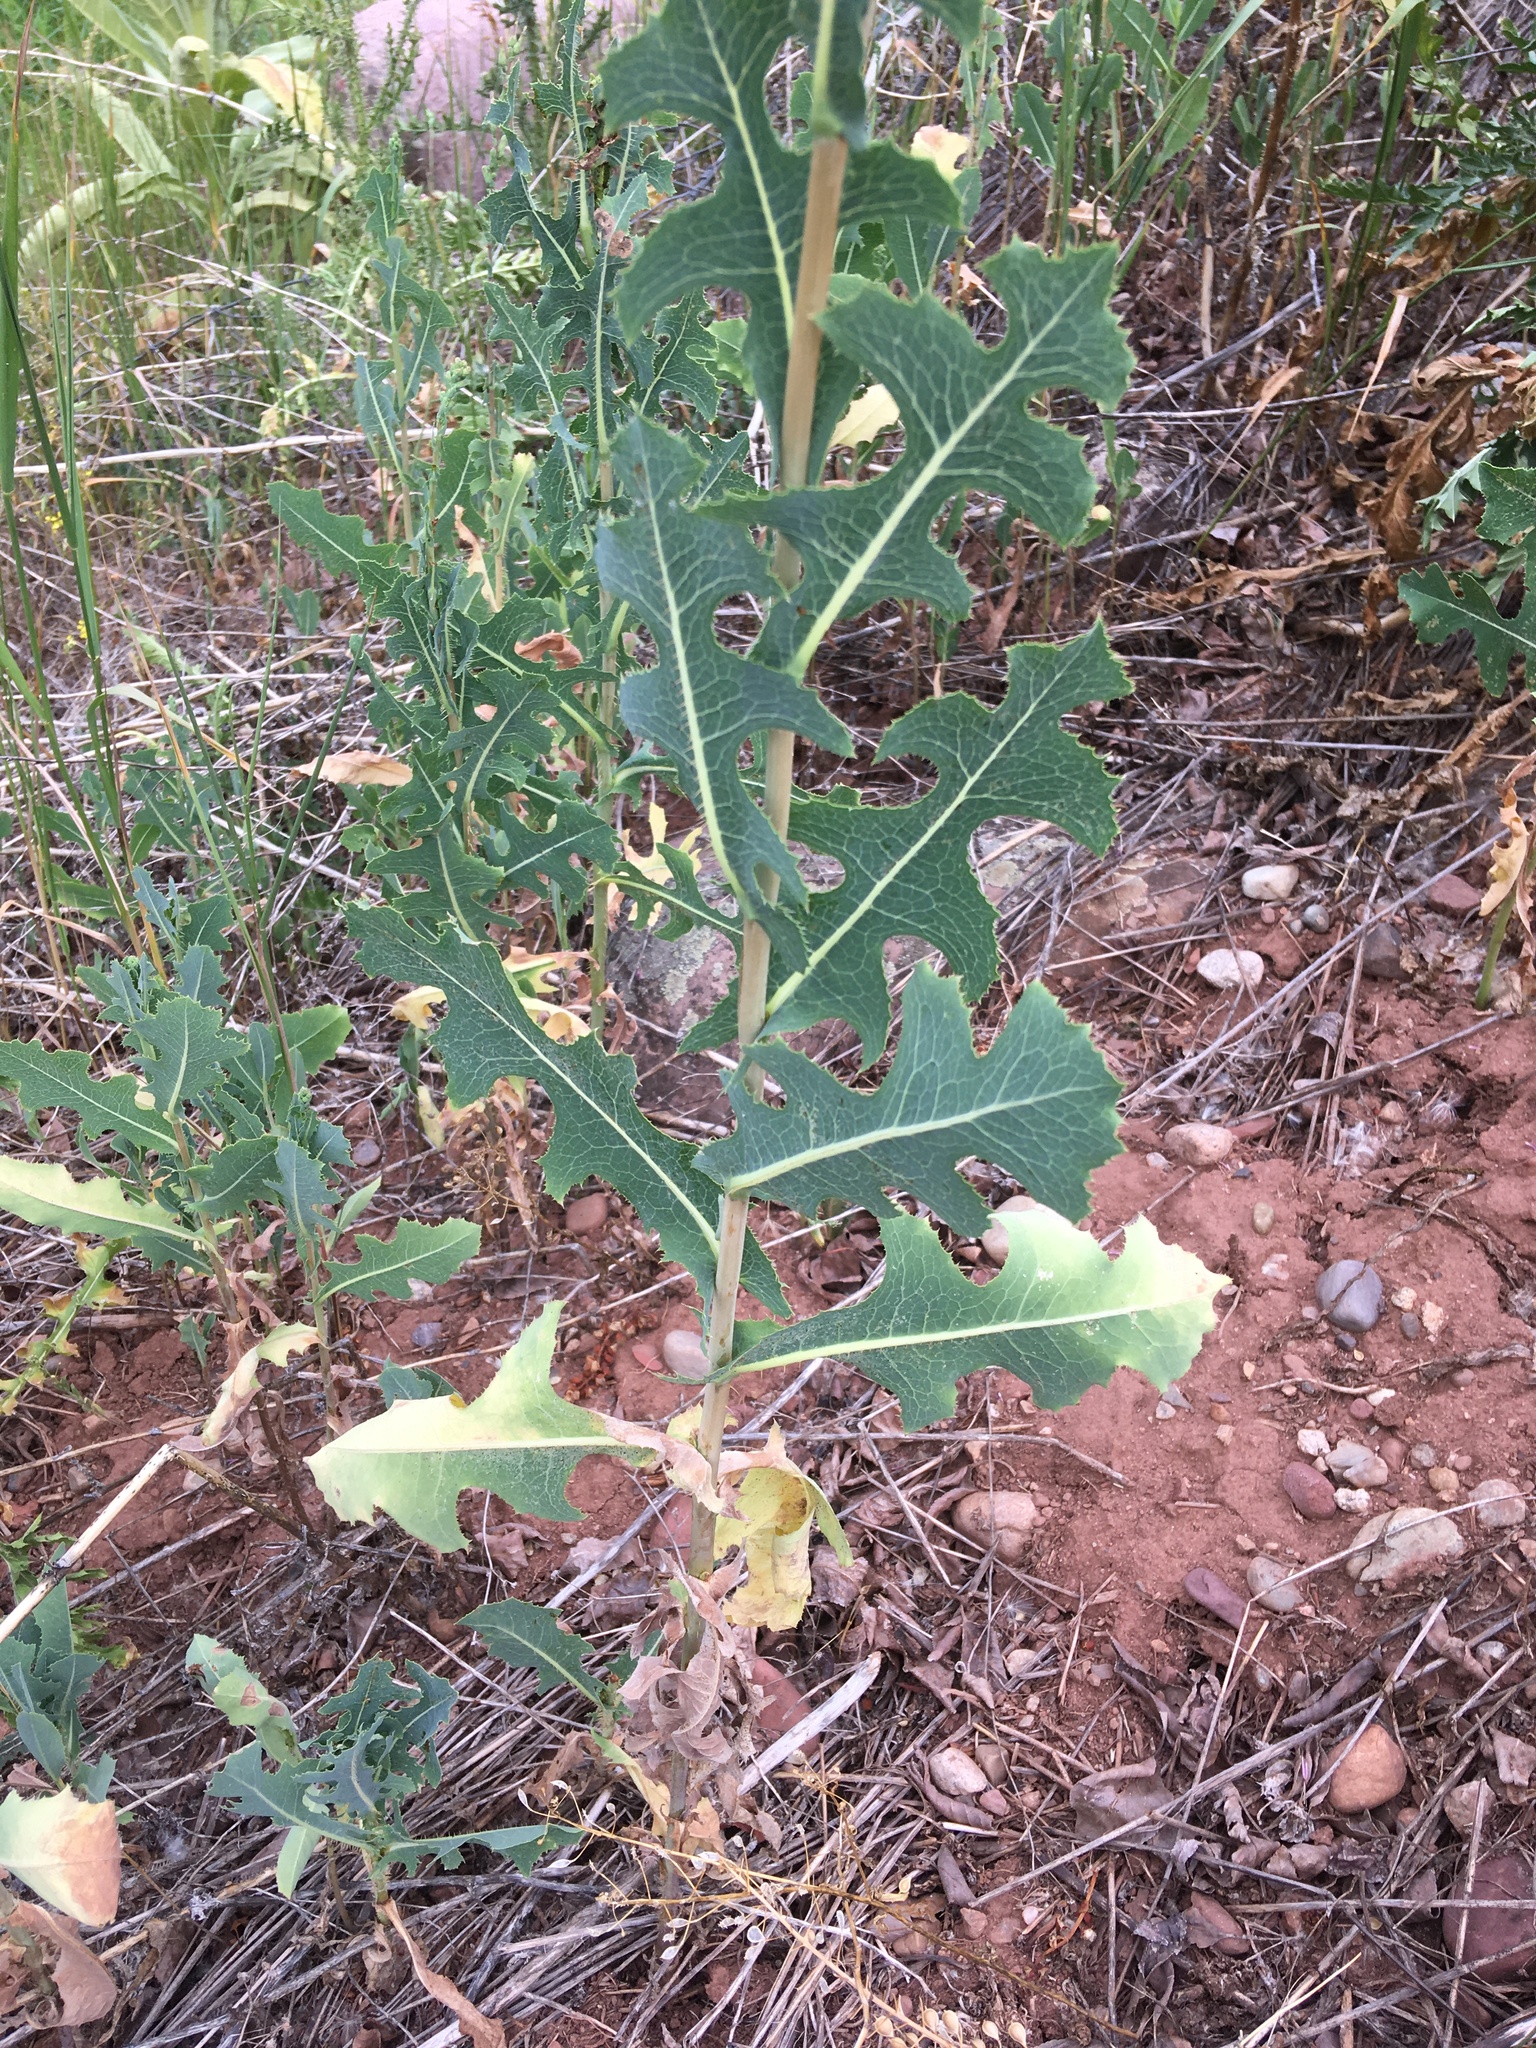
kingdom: Plantae
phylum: Tracheophyta
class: Magnoliopsida
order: Asterales
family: Asteraceae
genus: Lactuca
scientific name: Lactuca serriola
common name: Prickly lettuce
